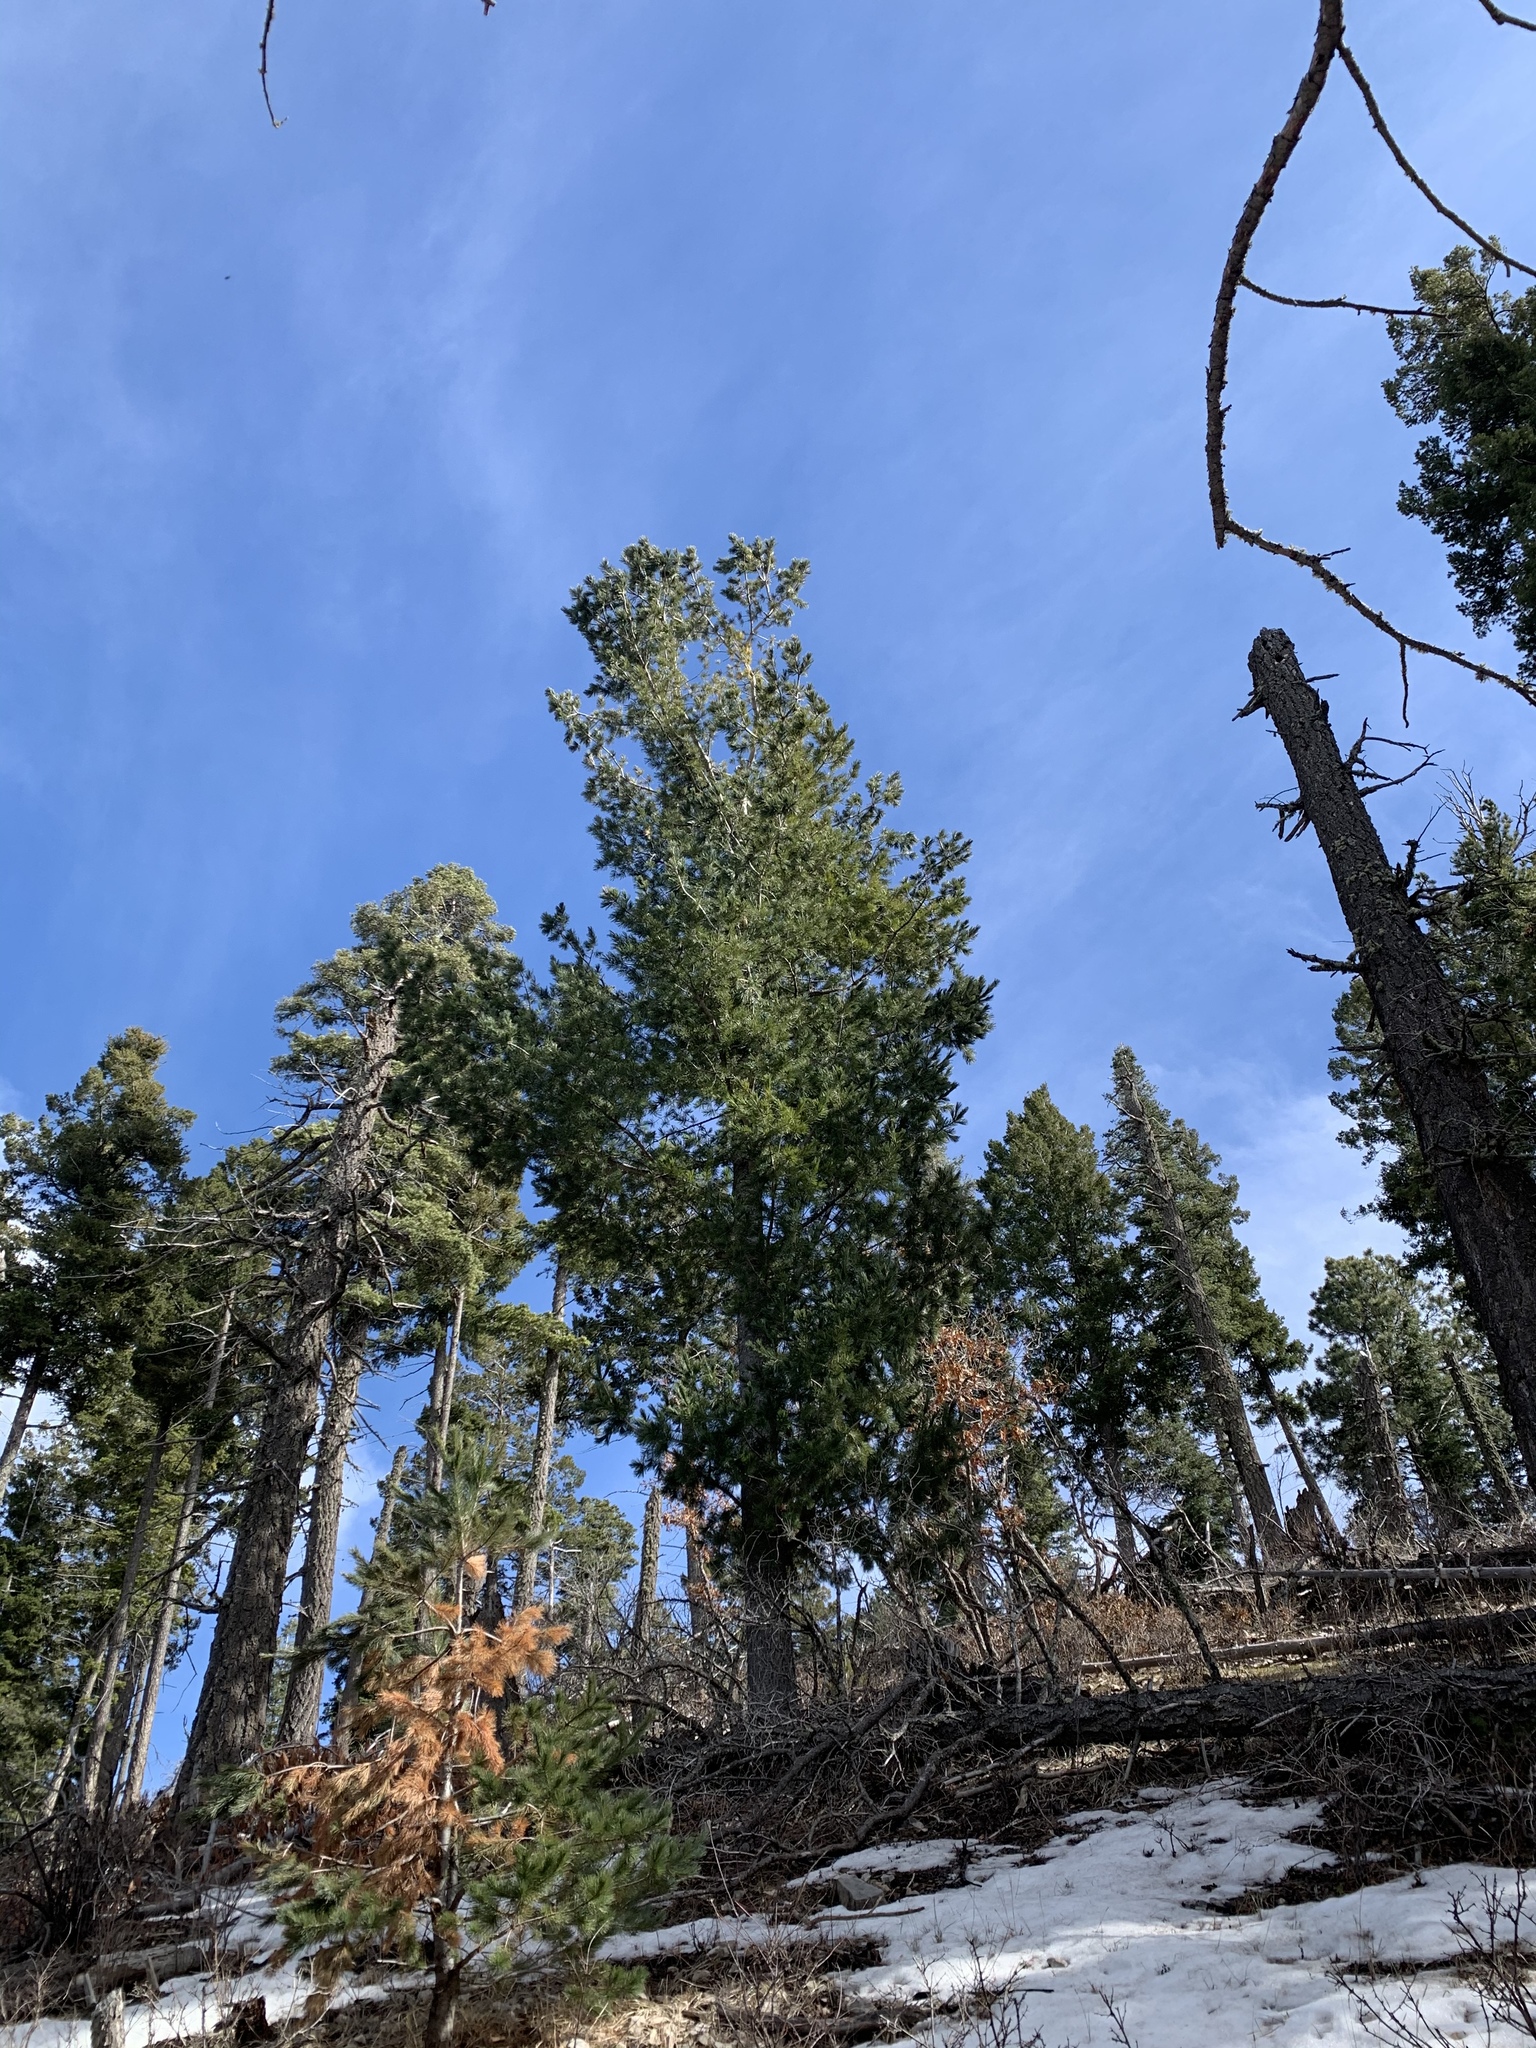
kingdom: Plantae
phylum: Tracheophyta
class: Pinopsida
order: Pinales
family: Pinaceae
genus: Pinus
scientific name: Pinus strobiformis
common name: Southwestern white pine
